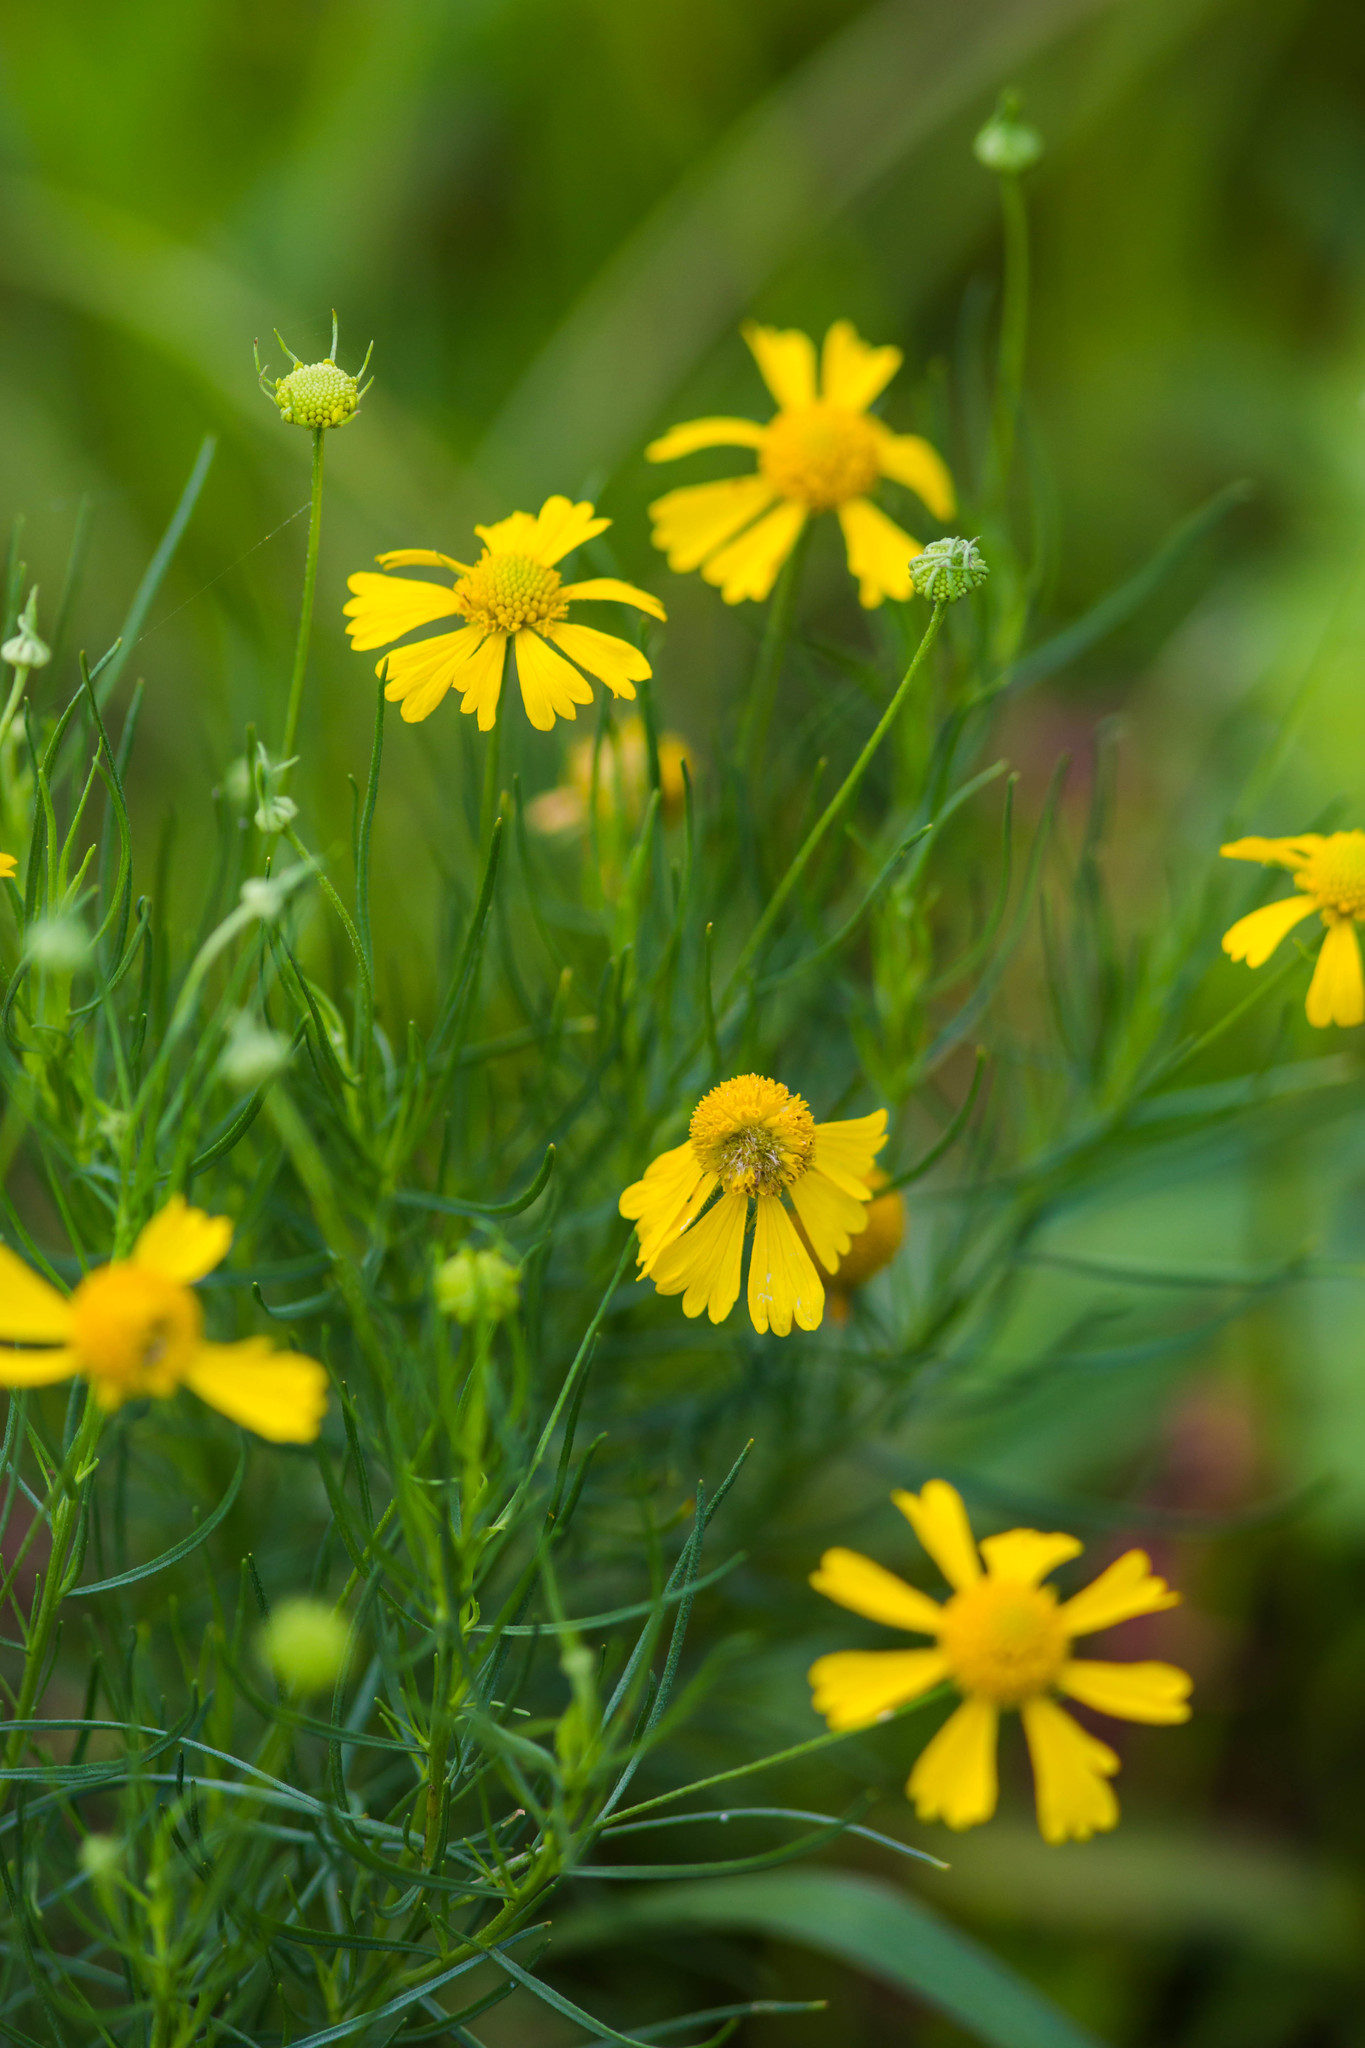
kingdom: Plantae
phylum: Tracheophyta
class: Magnoliopsida
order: Asterales
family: Asteraceae
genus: Helenium
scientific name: Helenium amarum
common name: Bitter sneezeweed
